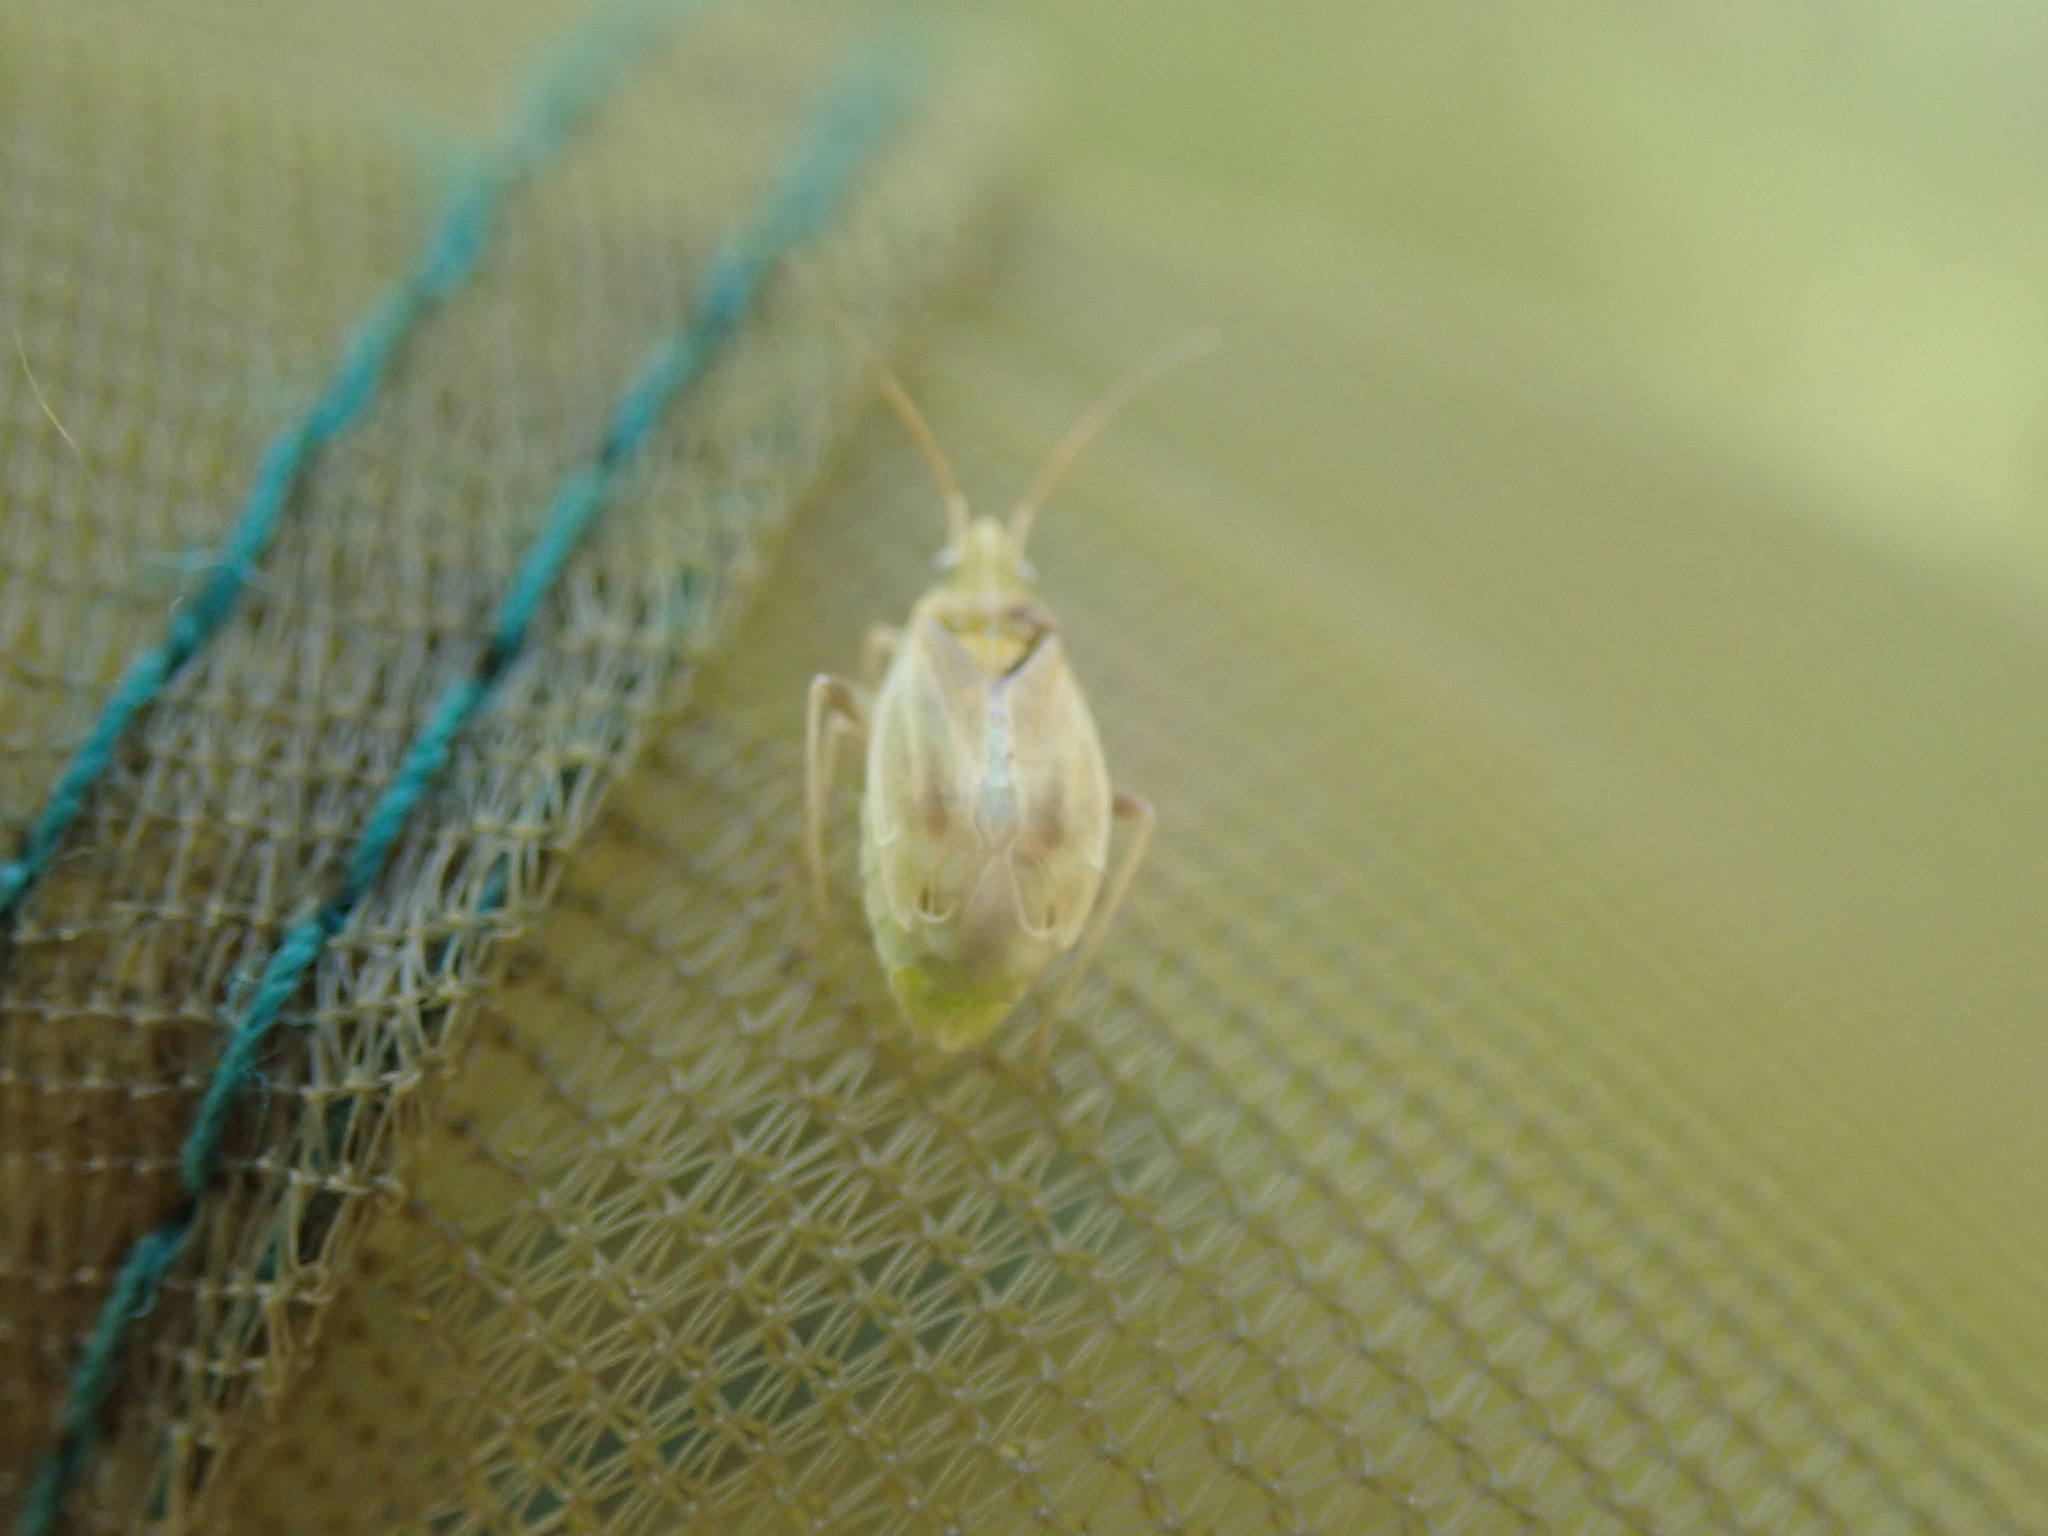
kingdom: Animalia
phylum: Arthropoda
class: Insecta
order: Hemiptera
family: Miridae
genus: Amblytylus
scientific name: Amblytylus nasutus
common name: Plant bug
